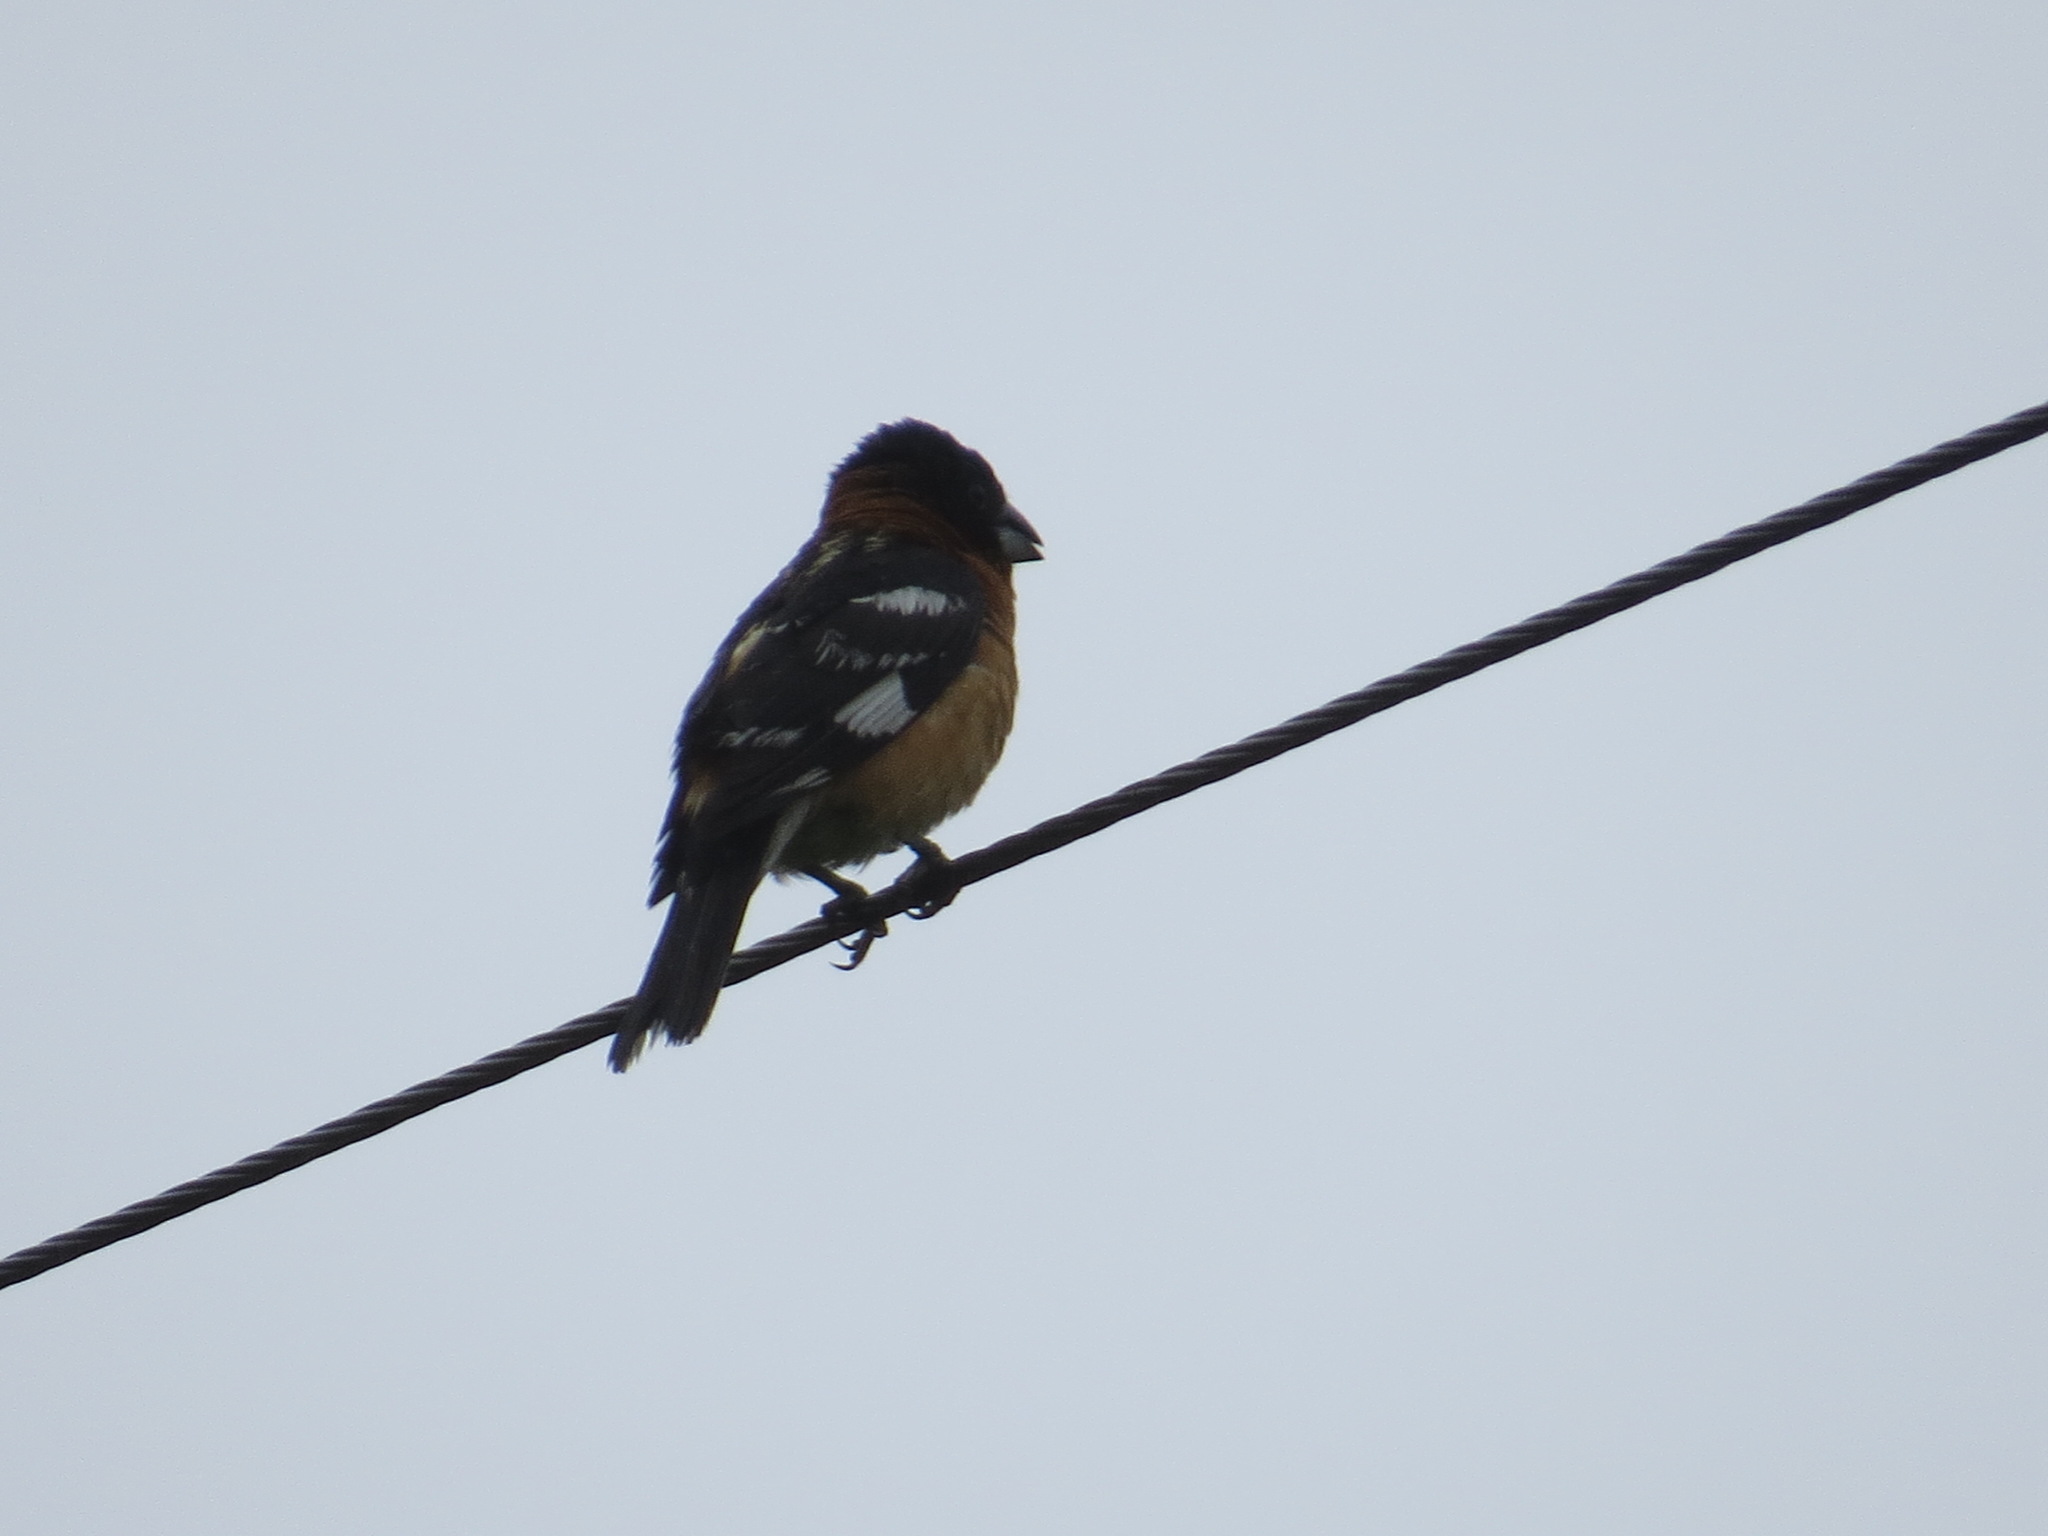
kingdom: Animalia
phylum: Chordata
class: Aves
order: Passeriformes
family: Cardinalidae
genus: Pheucticus
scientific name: Pheucticus melanocephalus
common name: Black-headed grosbeak
